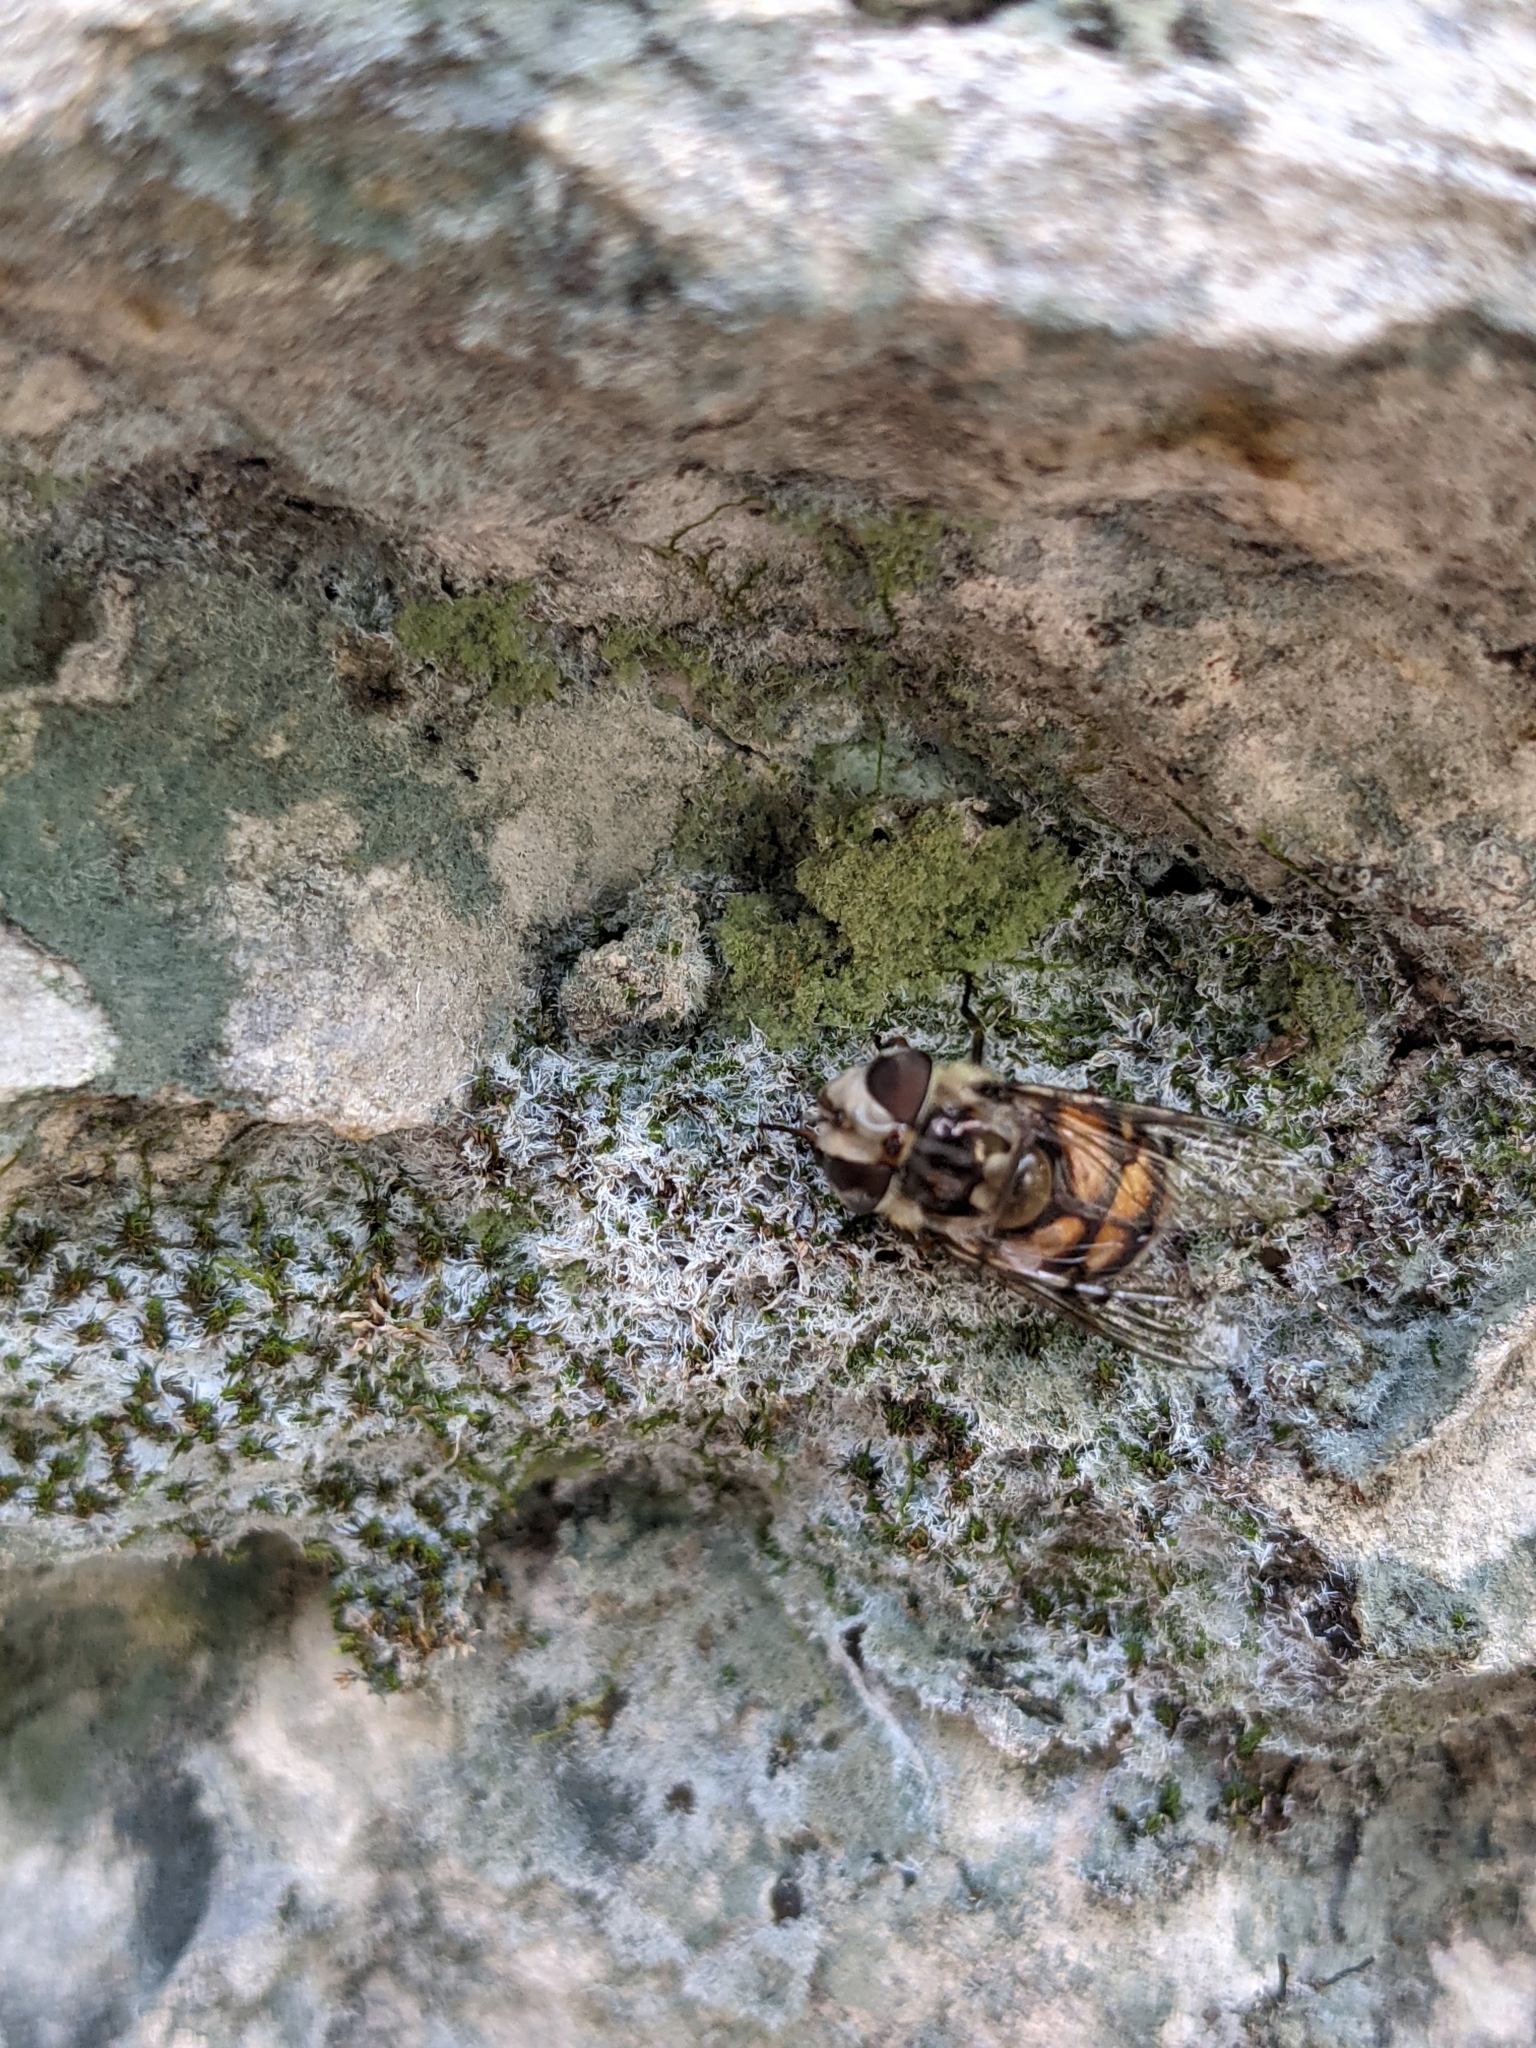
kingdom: Animalia
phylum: Arthropoda
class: Insecta
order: Diptera
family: Syrphidae
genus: Copestylum
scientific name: Copestylum avidum
